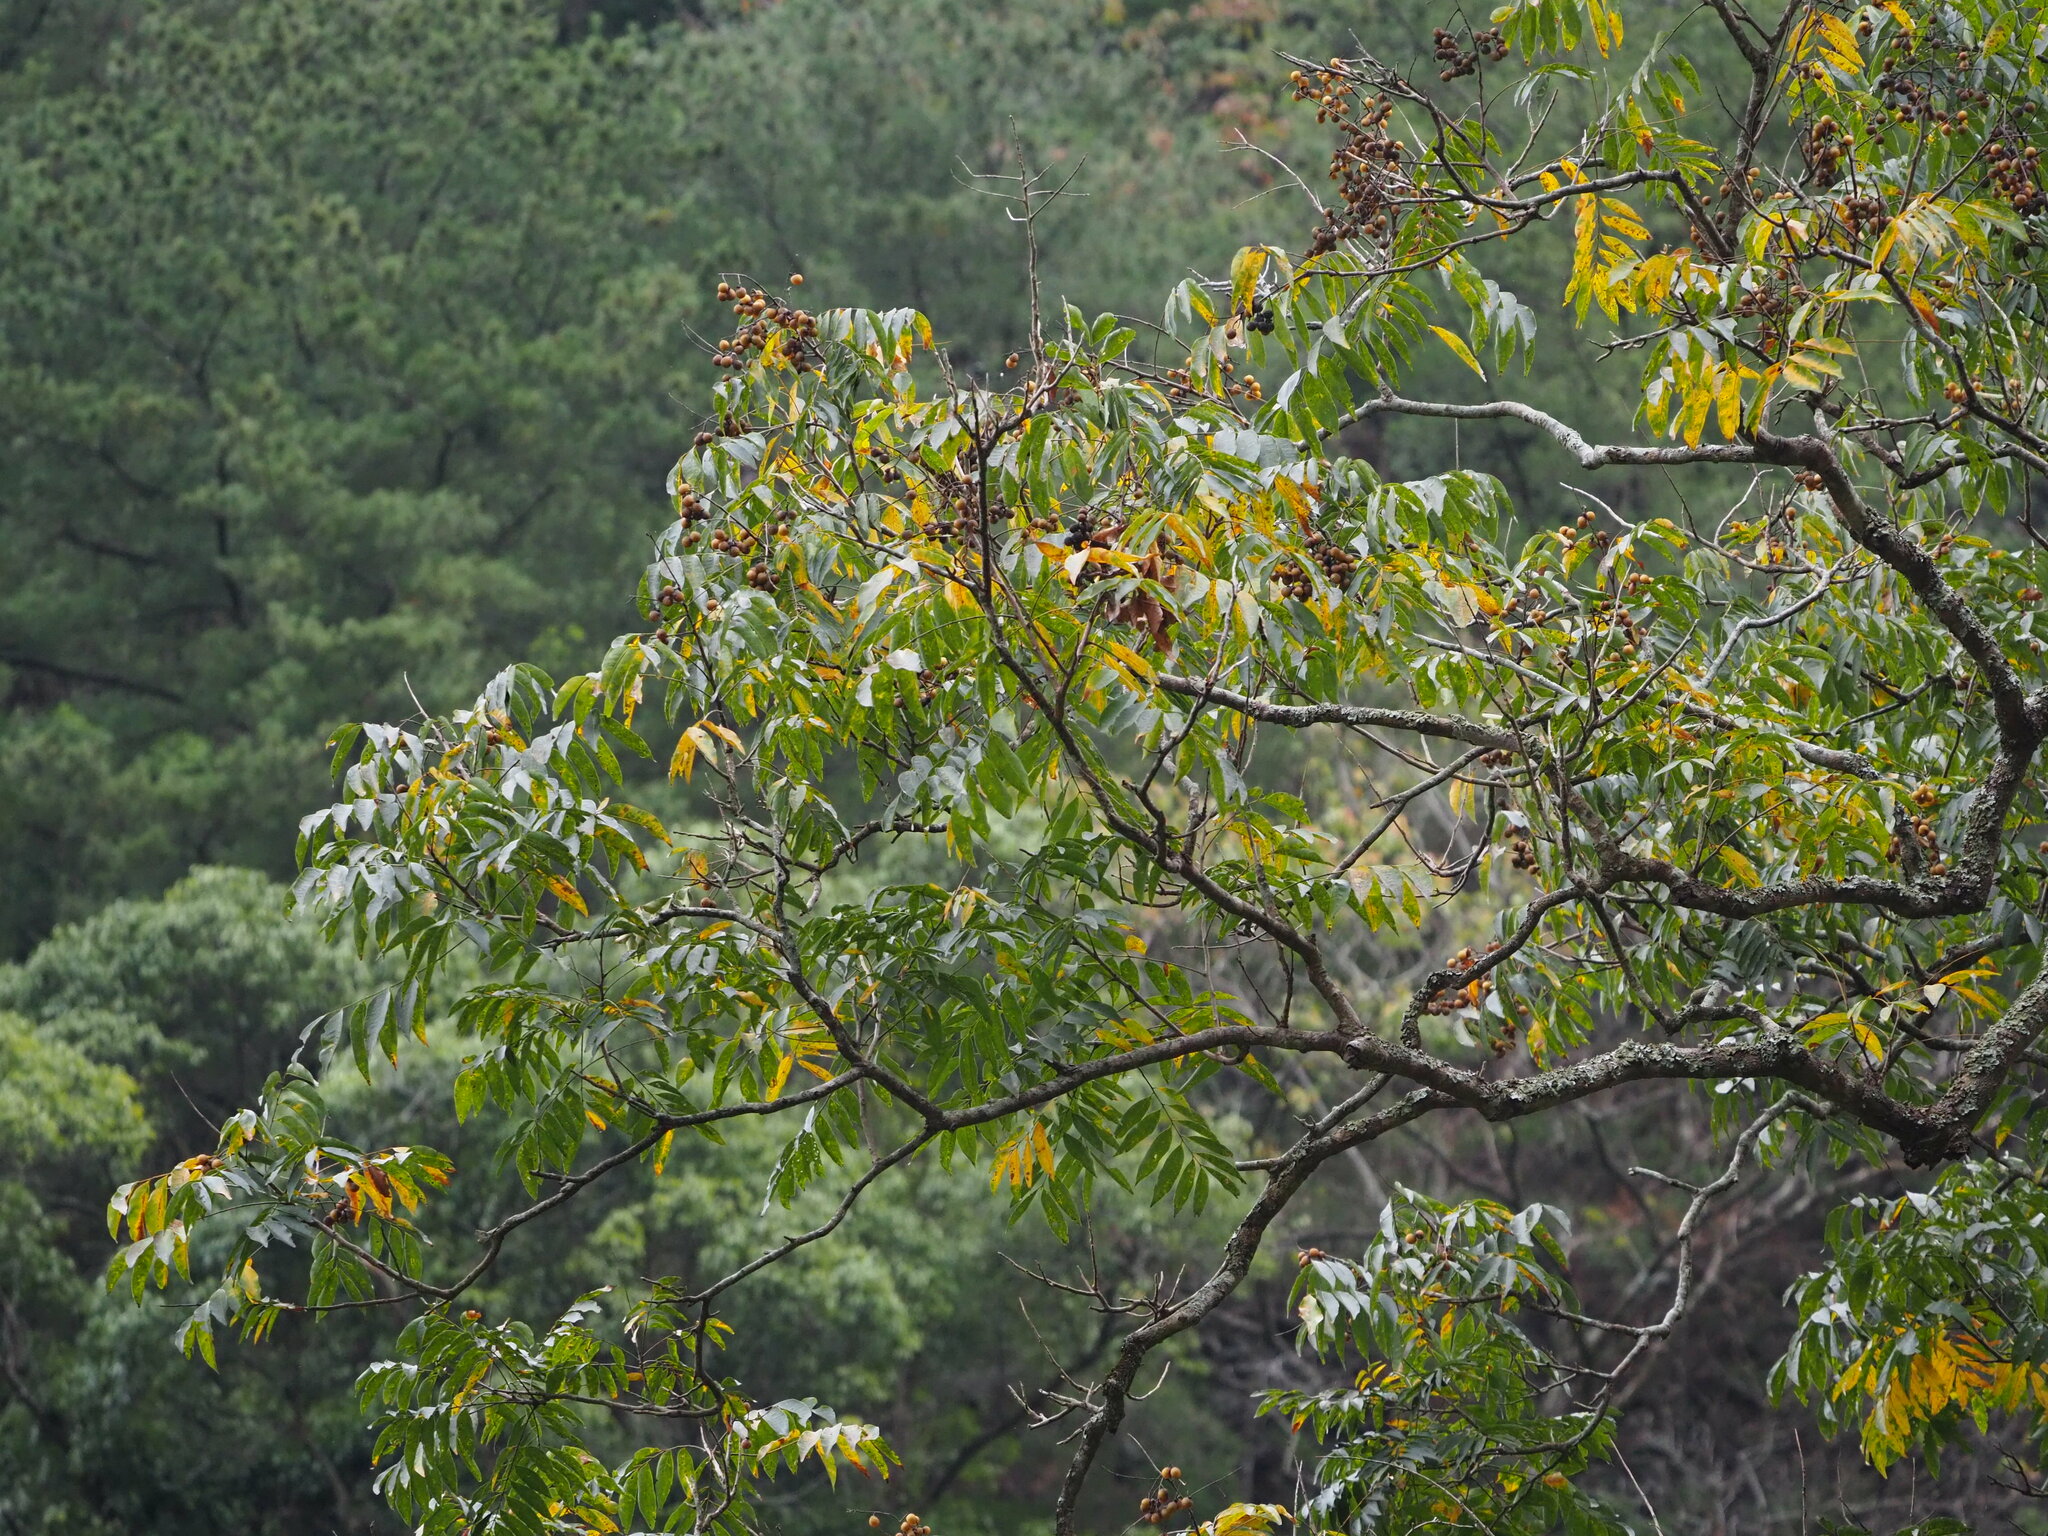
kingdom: Plantae
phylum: Tracheophyta
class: Magnoliopsida
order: Sapindales
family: Sapindaceae
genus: Sapindus
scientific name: Sapindus mukorossi
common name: Chinese soapberry
